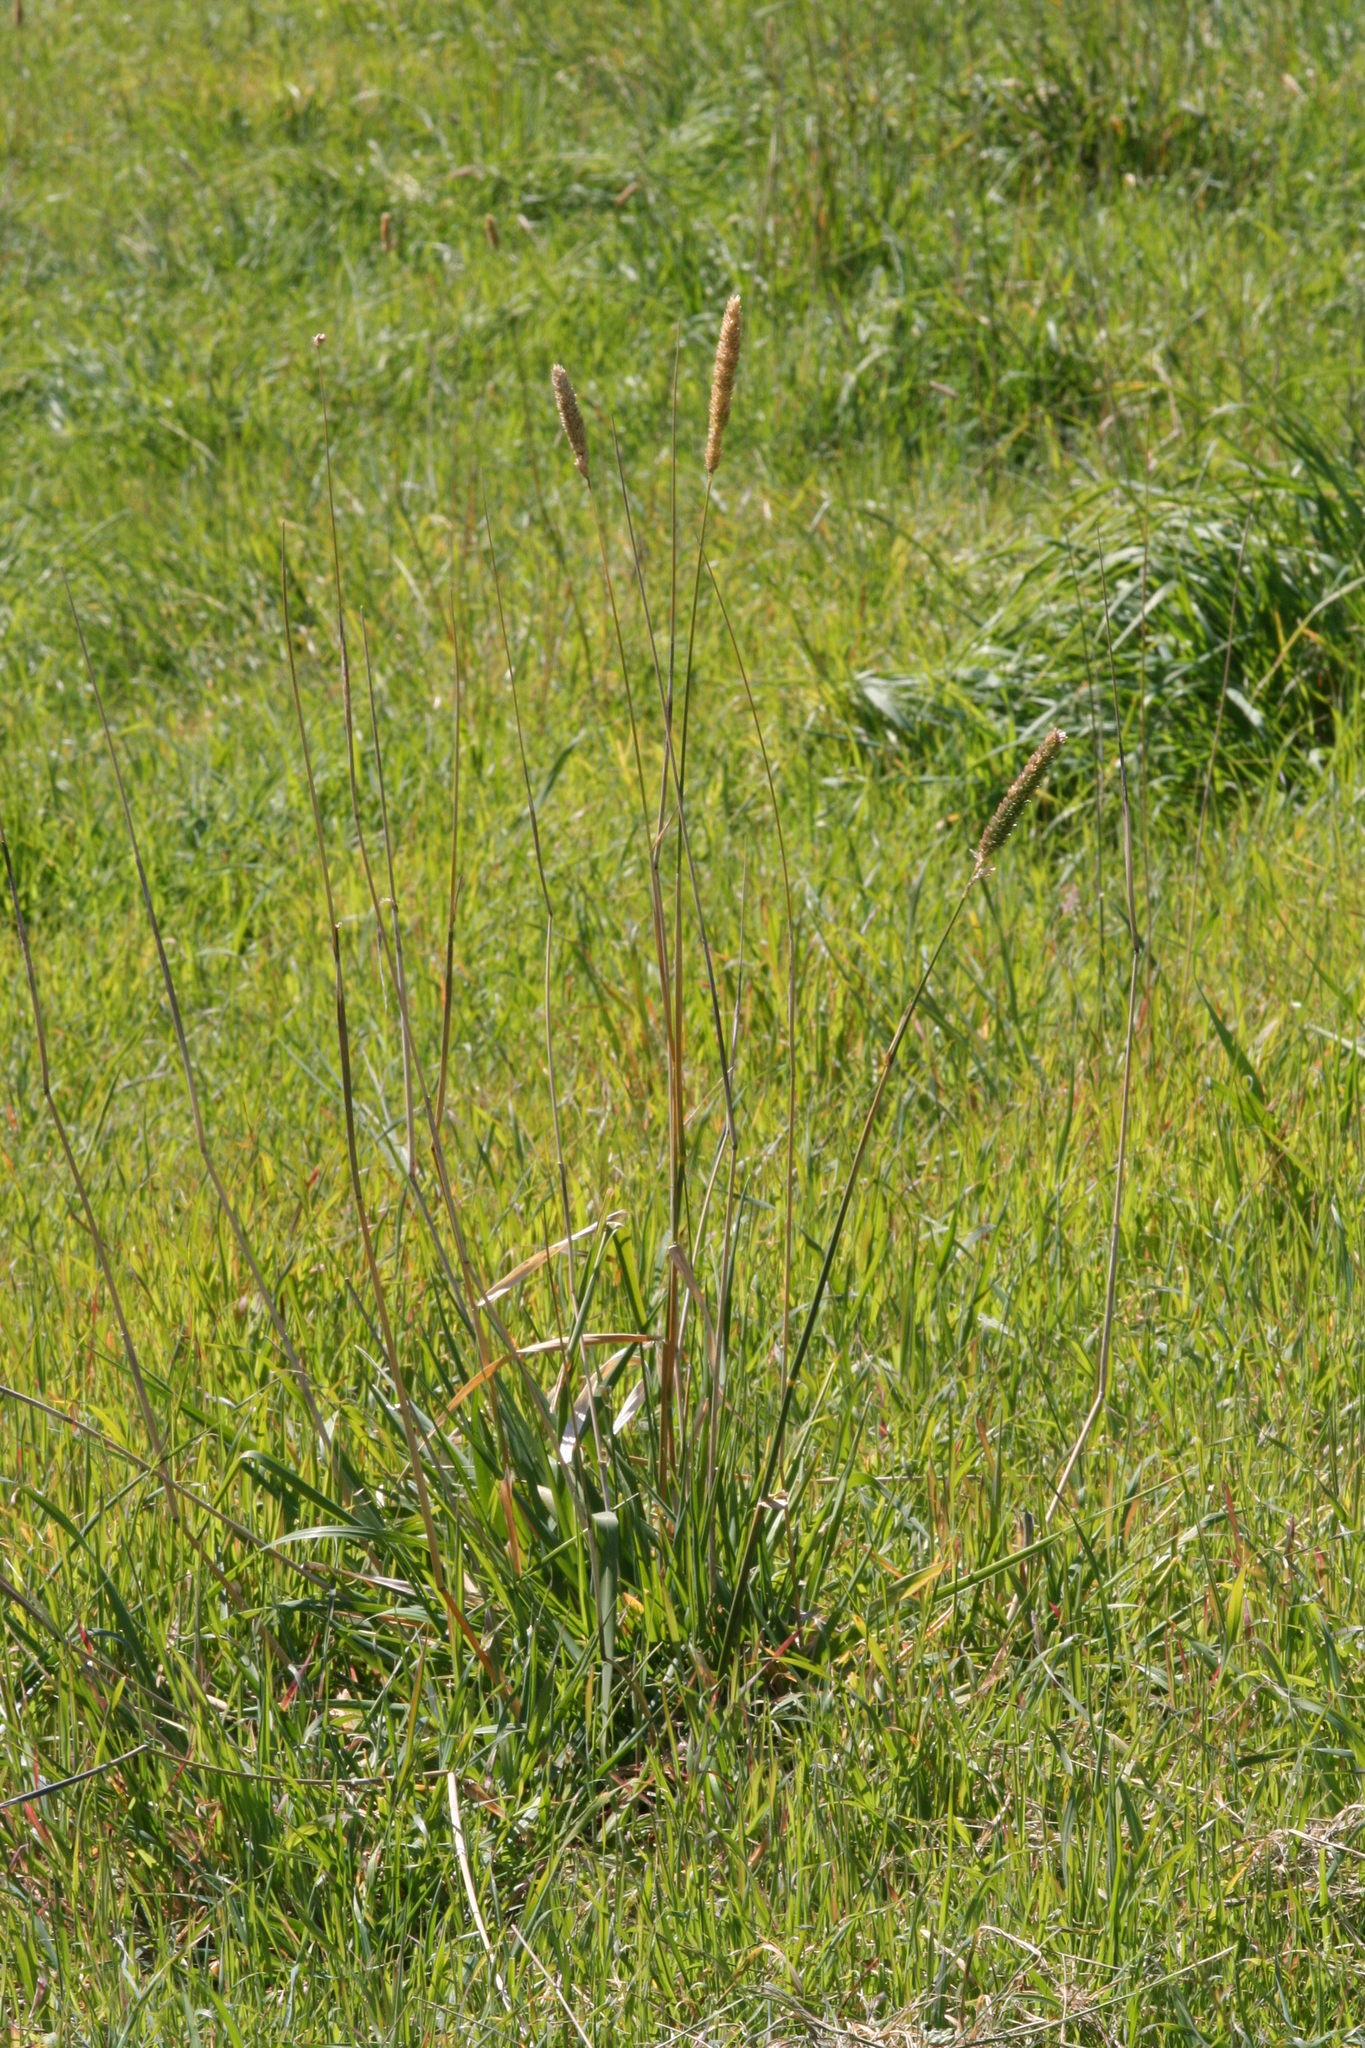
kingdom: Plantae
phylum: Tracheophyta
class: Liliopsida
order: Poales
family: Poaceae
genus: Phalaris
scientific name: Phalaris aquatica
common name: Bulbous canary-grass
